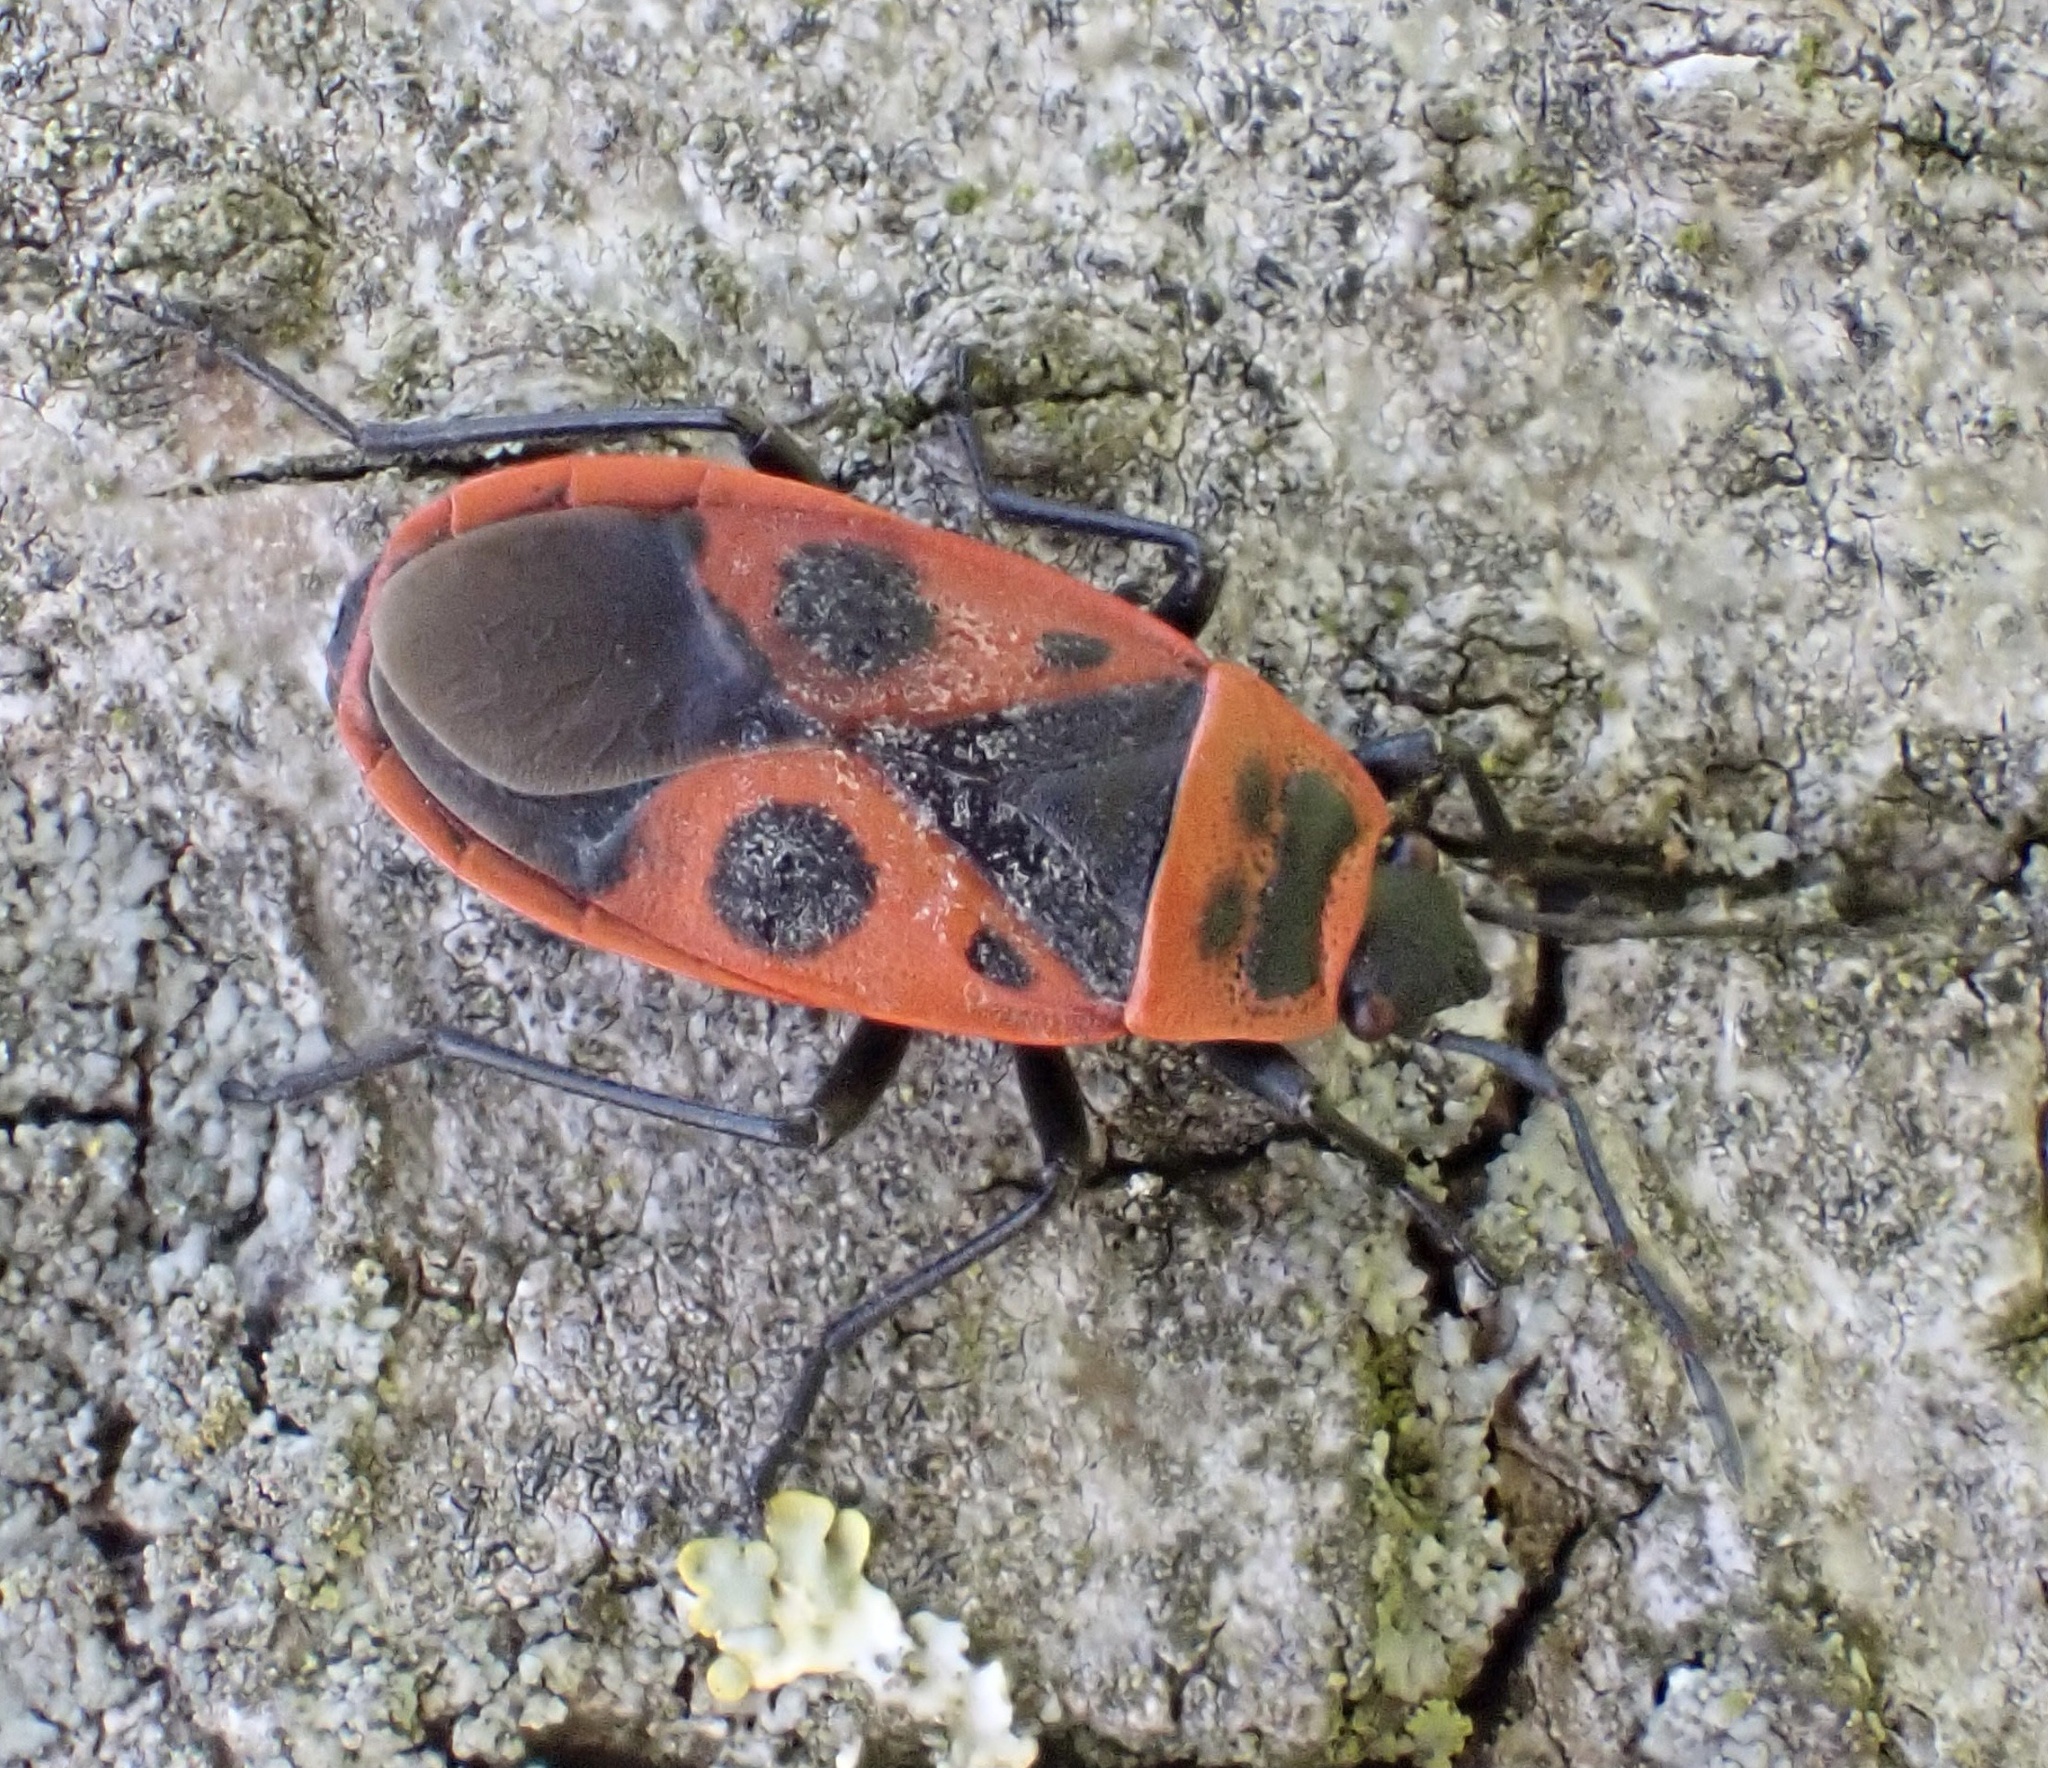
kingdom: Animalia
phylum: Arthropoda
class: Insecta
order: Hemiptera
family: Pyrrhocoridae
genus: Pyrrhocoris
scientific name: Pyrrhocoris apterus
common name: Firebug
